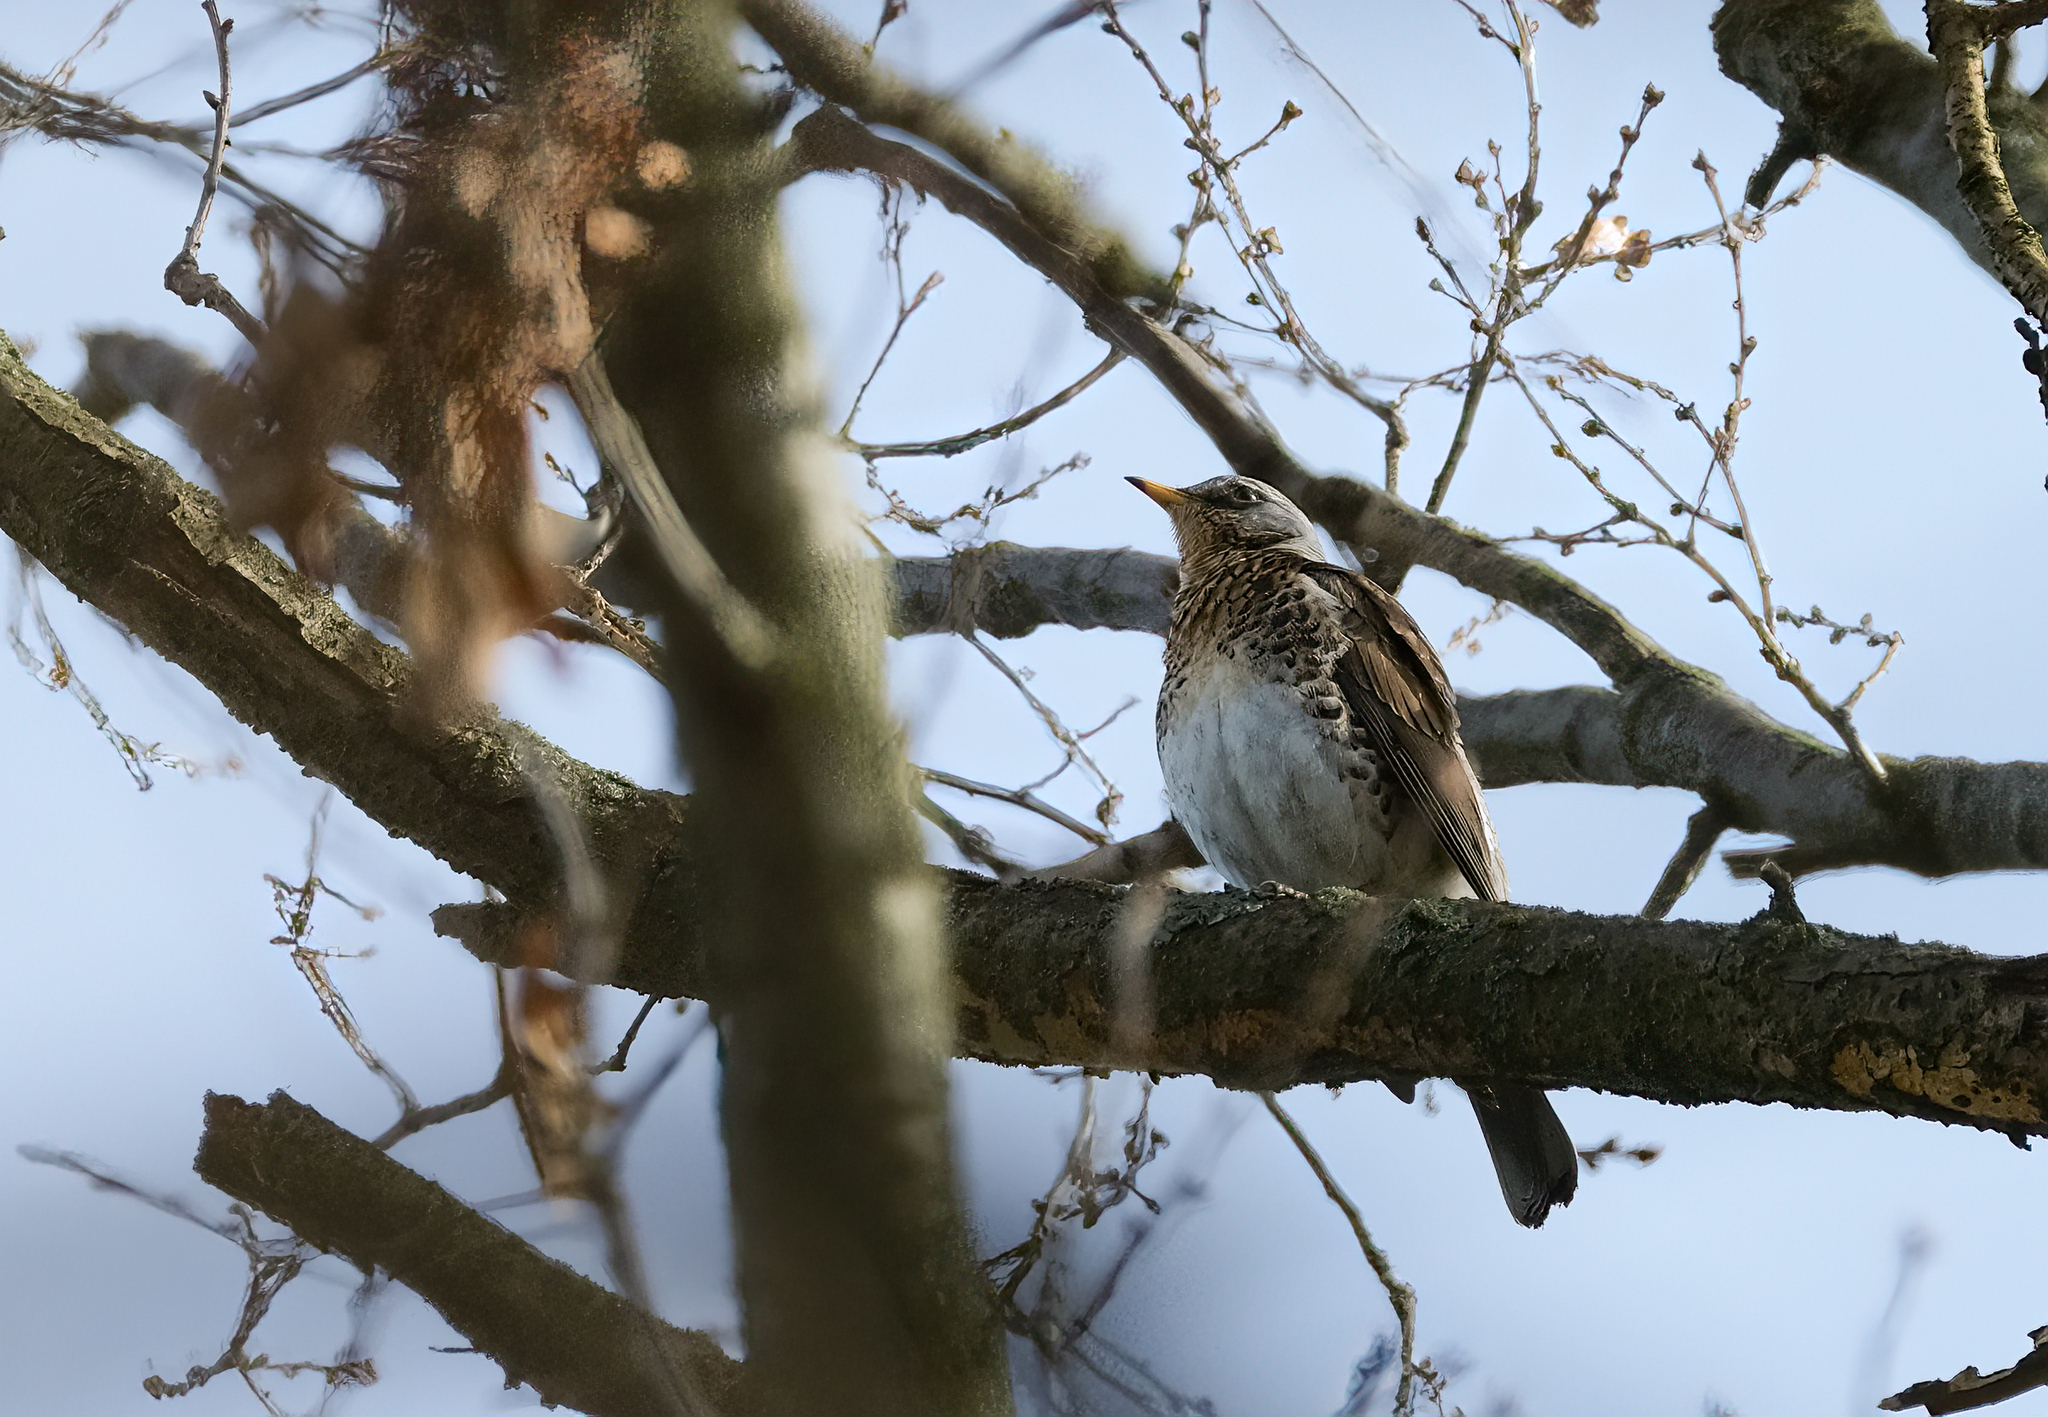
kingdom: Animalia
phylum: Chordata
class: Aves
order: Passeriformes
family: Turdidae
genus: Turdus
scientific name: Turdus pilaris
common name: Fieldfare
